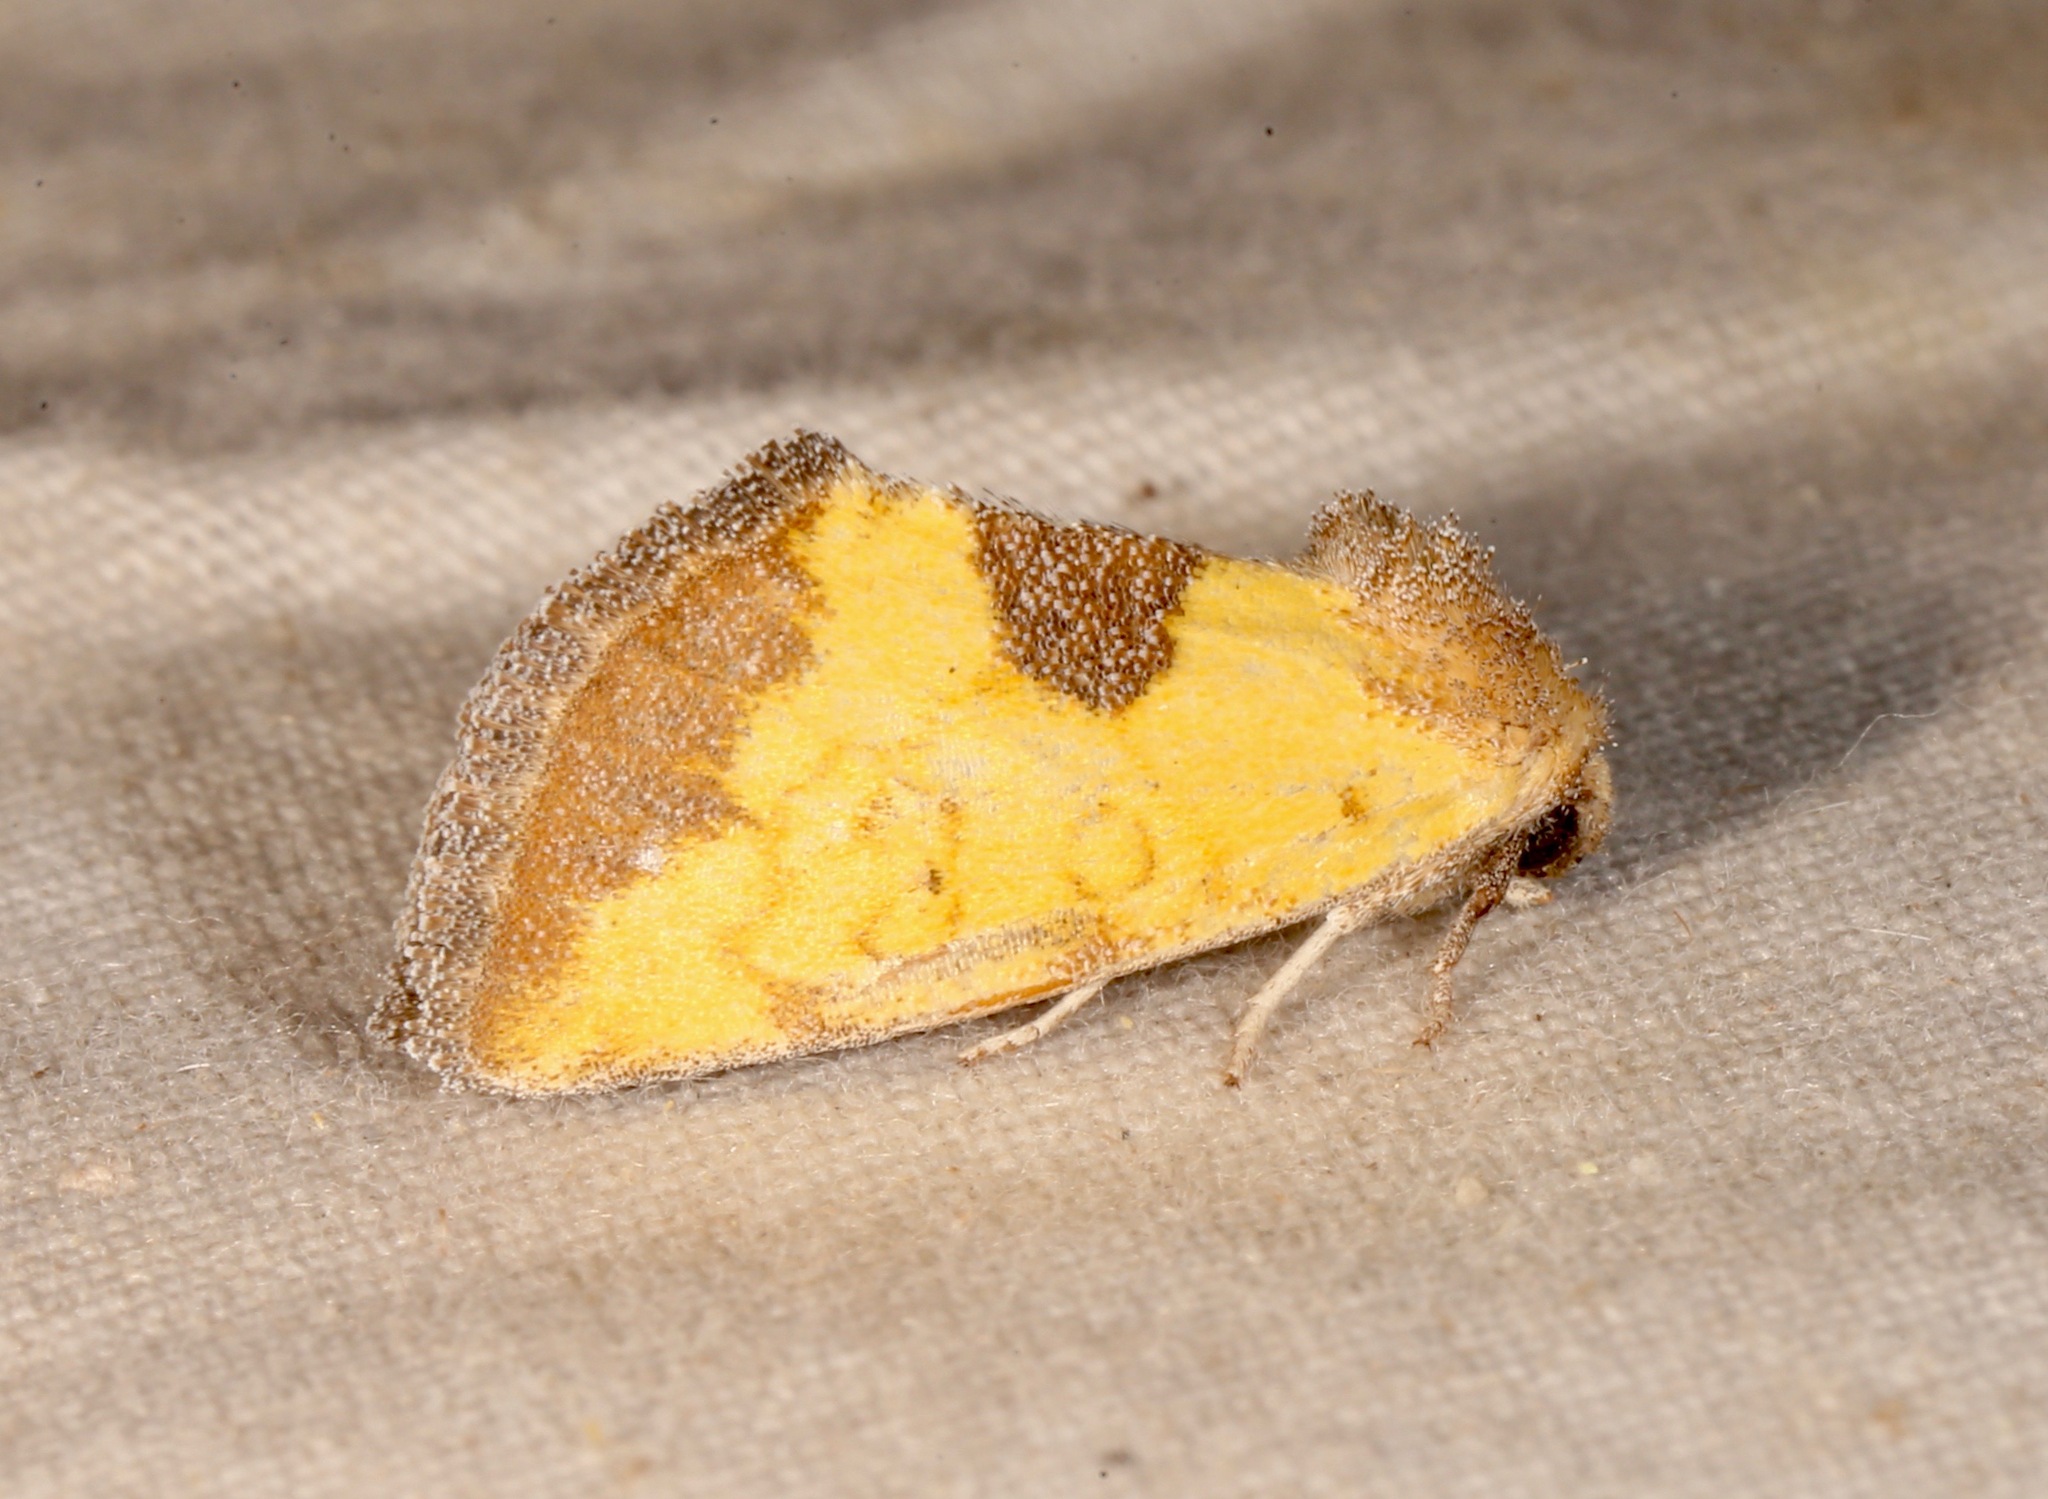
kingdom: Animalia
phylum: Arthropoda
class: Insecta
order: Lepidoptera
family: Noctuidae
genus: Stiria
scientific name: Stiria dyari
